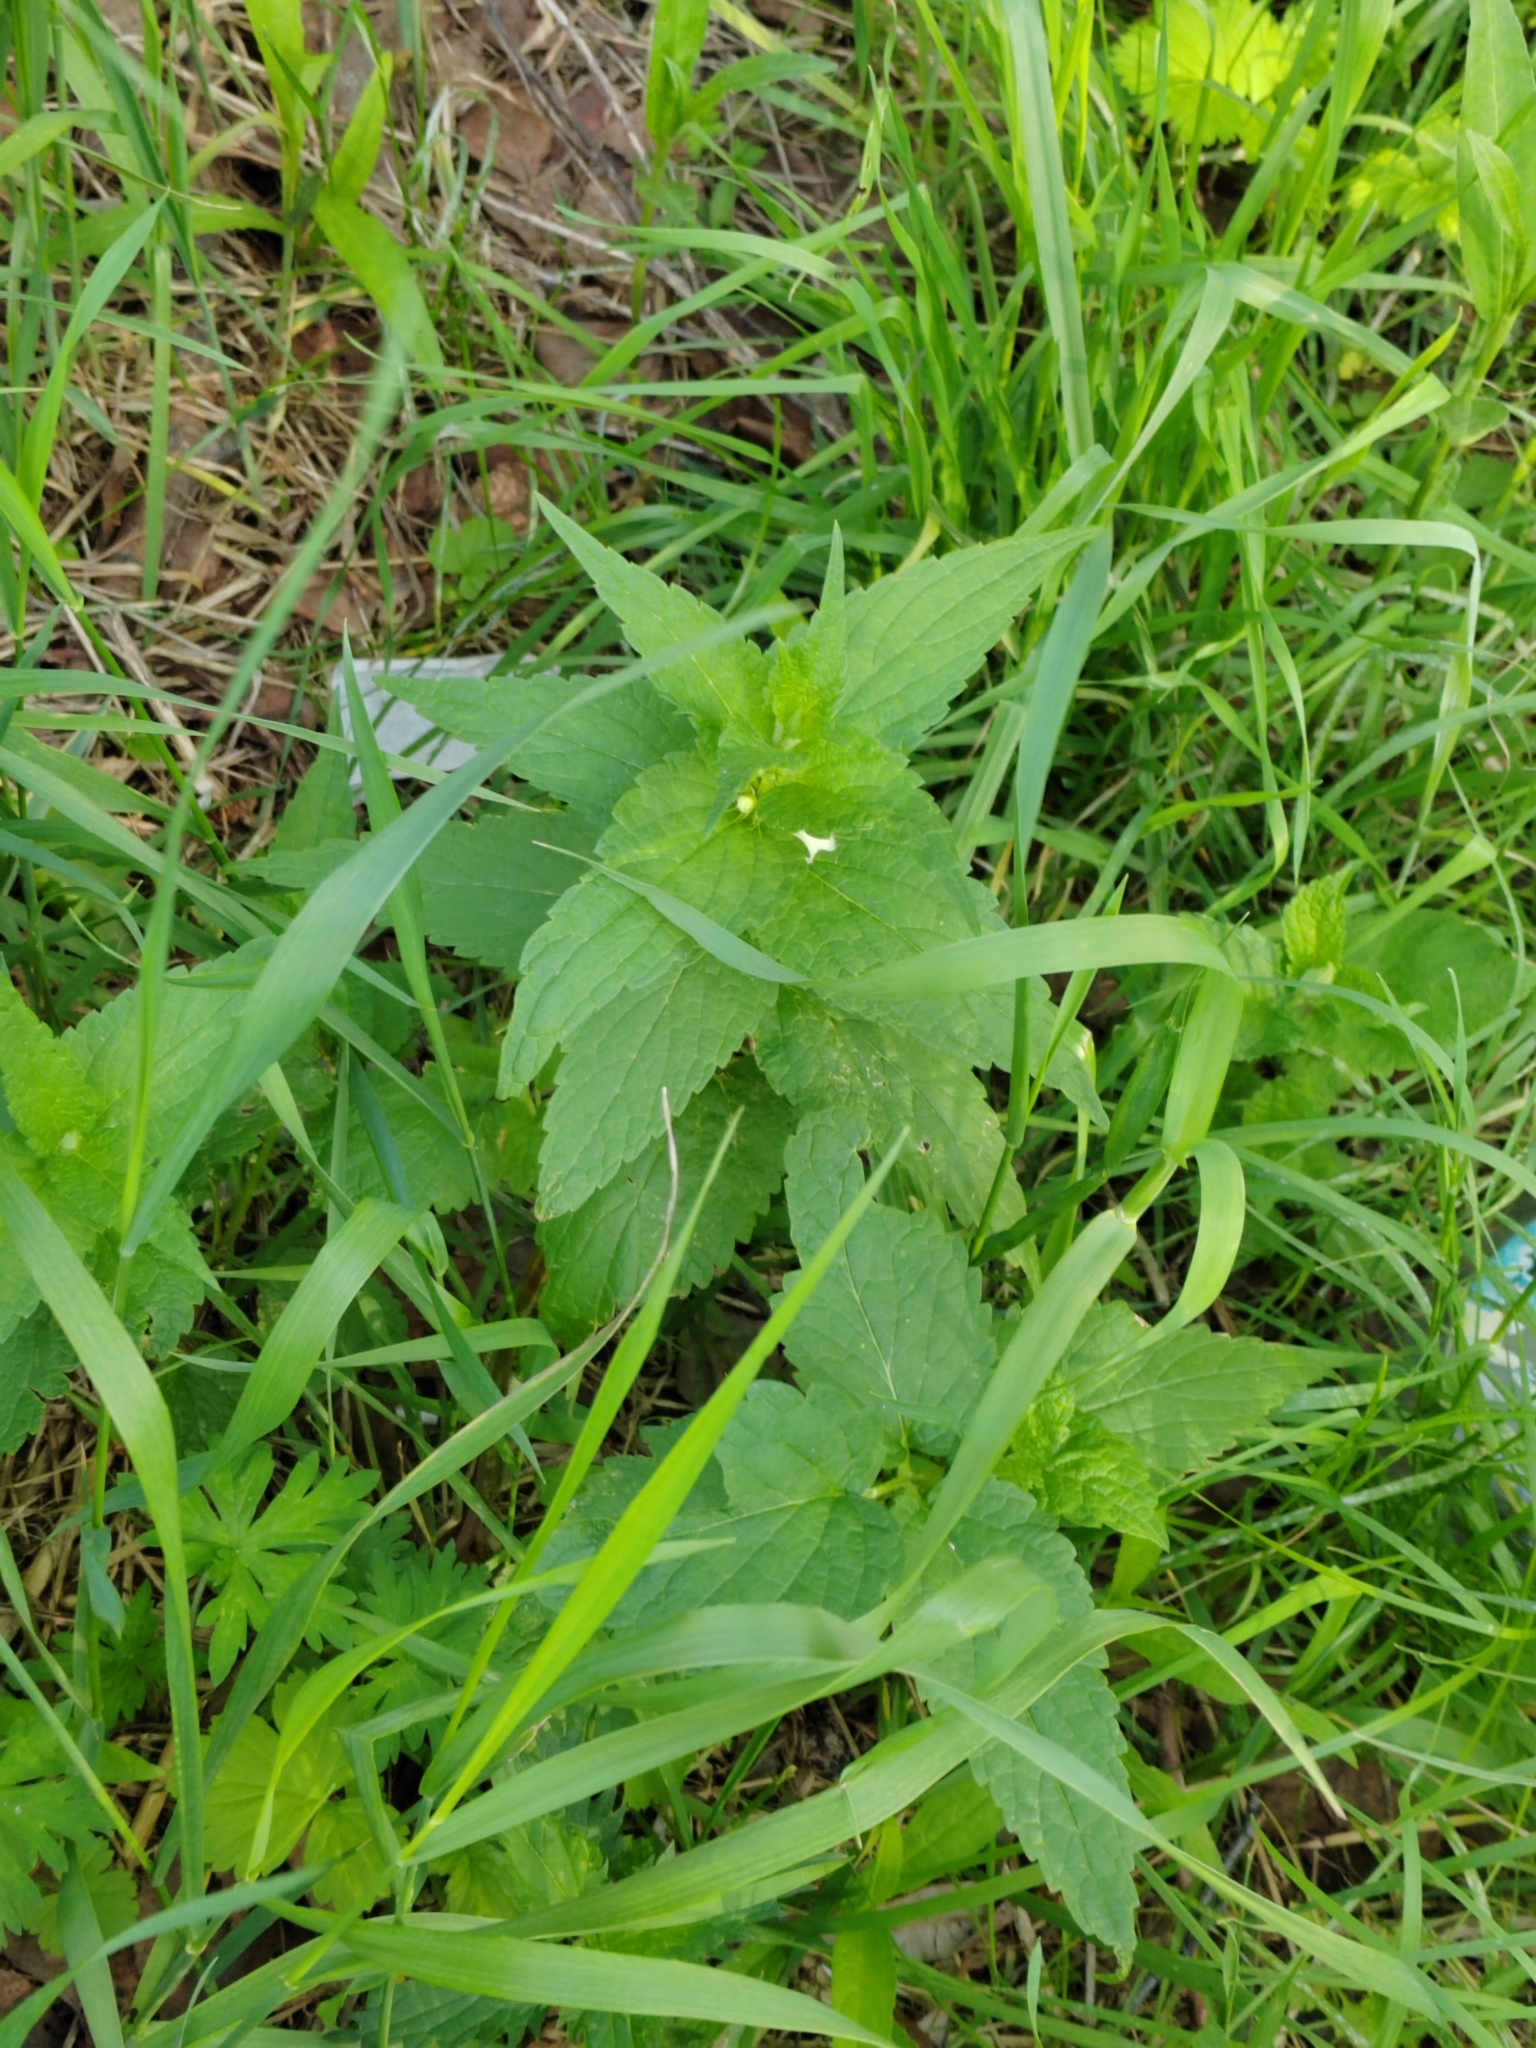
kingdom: Plantae
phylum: Tracheophyta
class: Magnoliopsida
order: Lamiales
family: Lamiaceae
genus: Lamium
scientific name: Lamium album
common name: White dead-nettle
